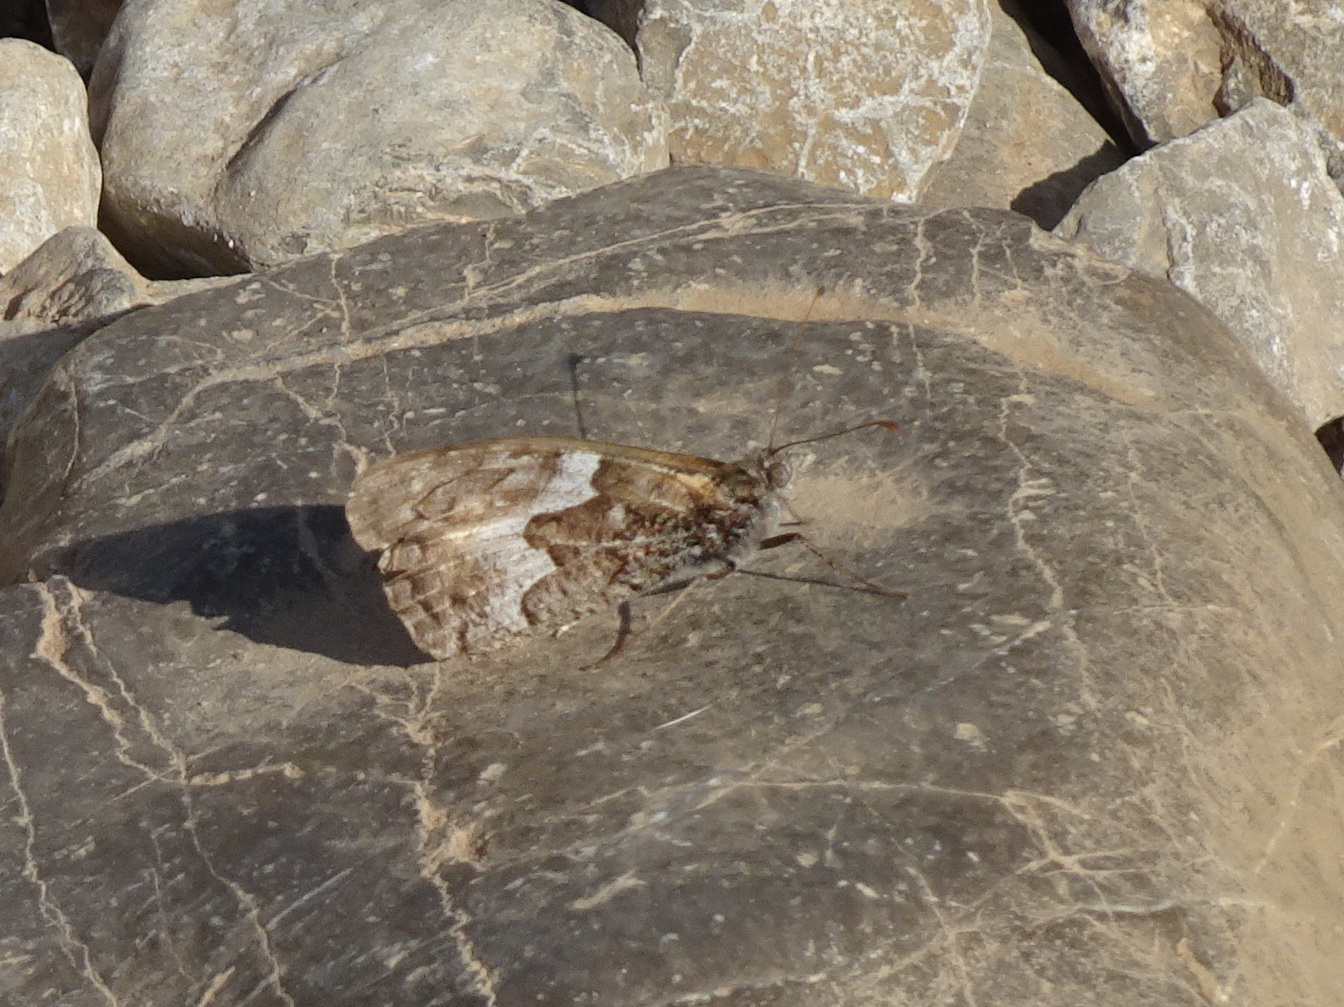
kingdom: Animalia
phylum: Arthropoda
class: Insecta
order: Lepidoptera
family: Nymphalidae
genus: Hipparchia
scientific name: Hipparchia semele
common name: Grayling
